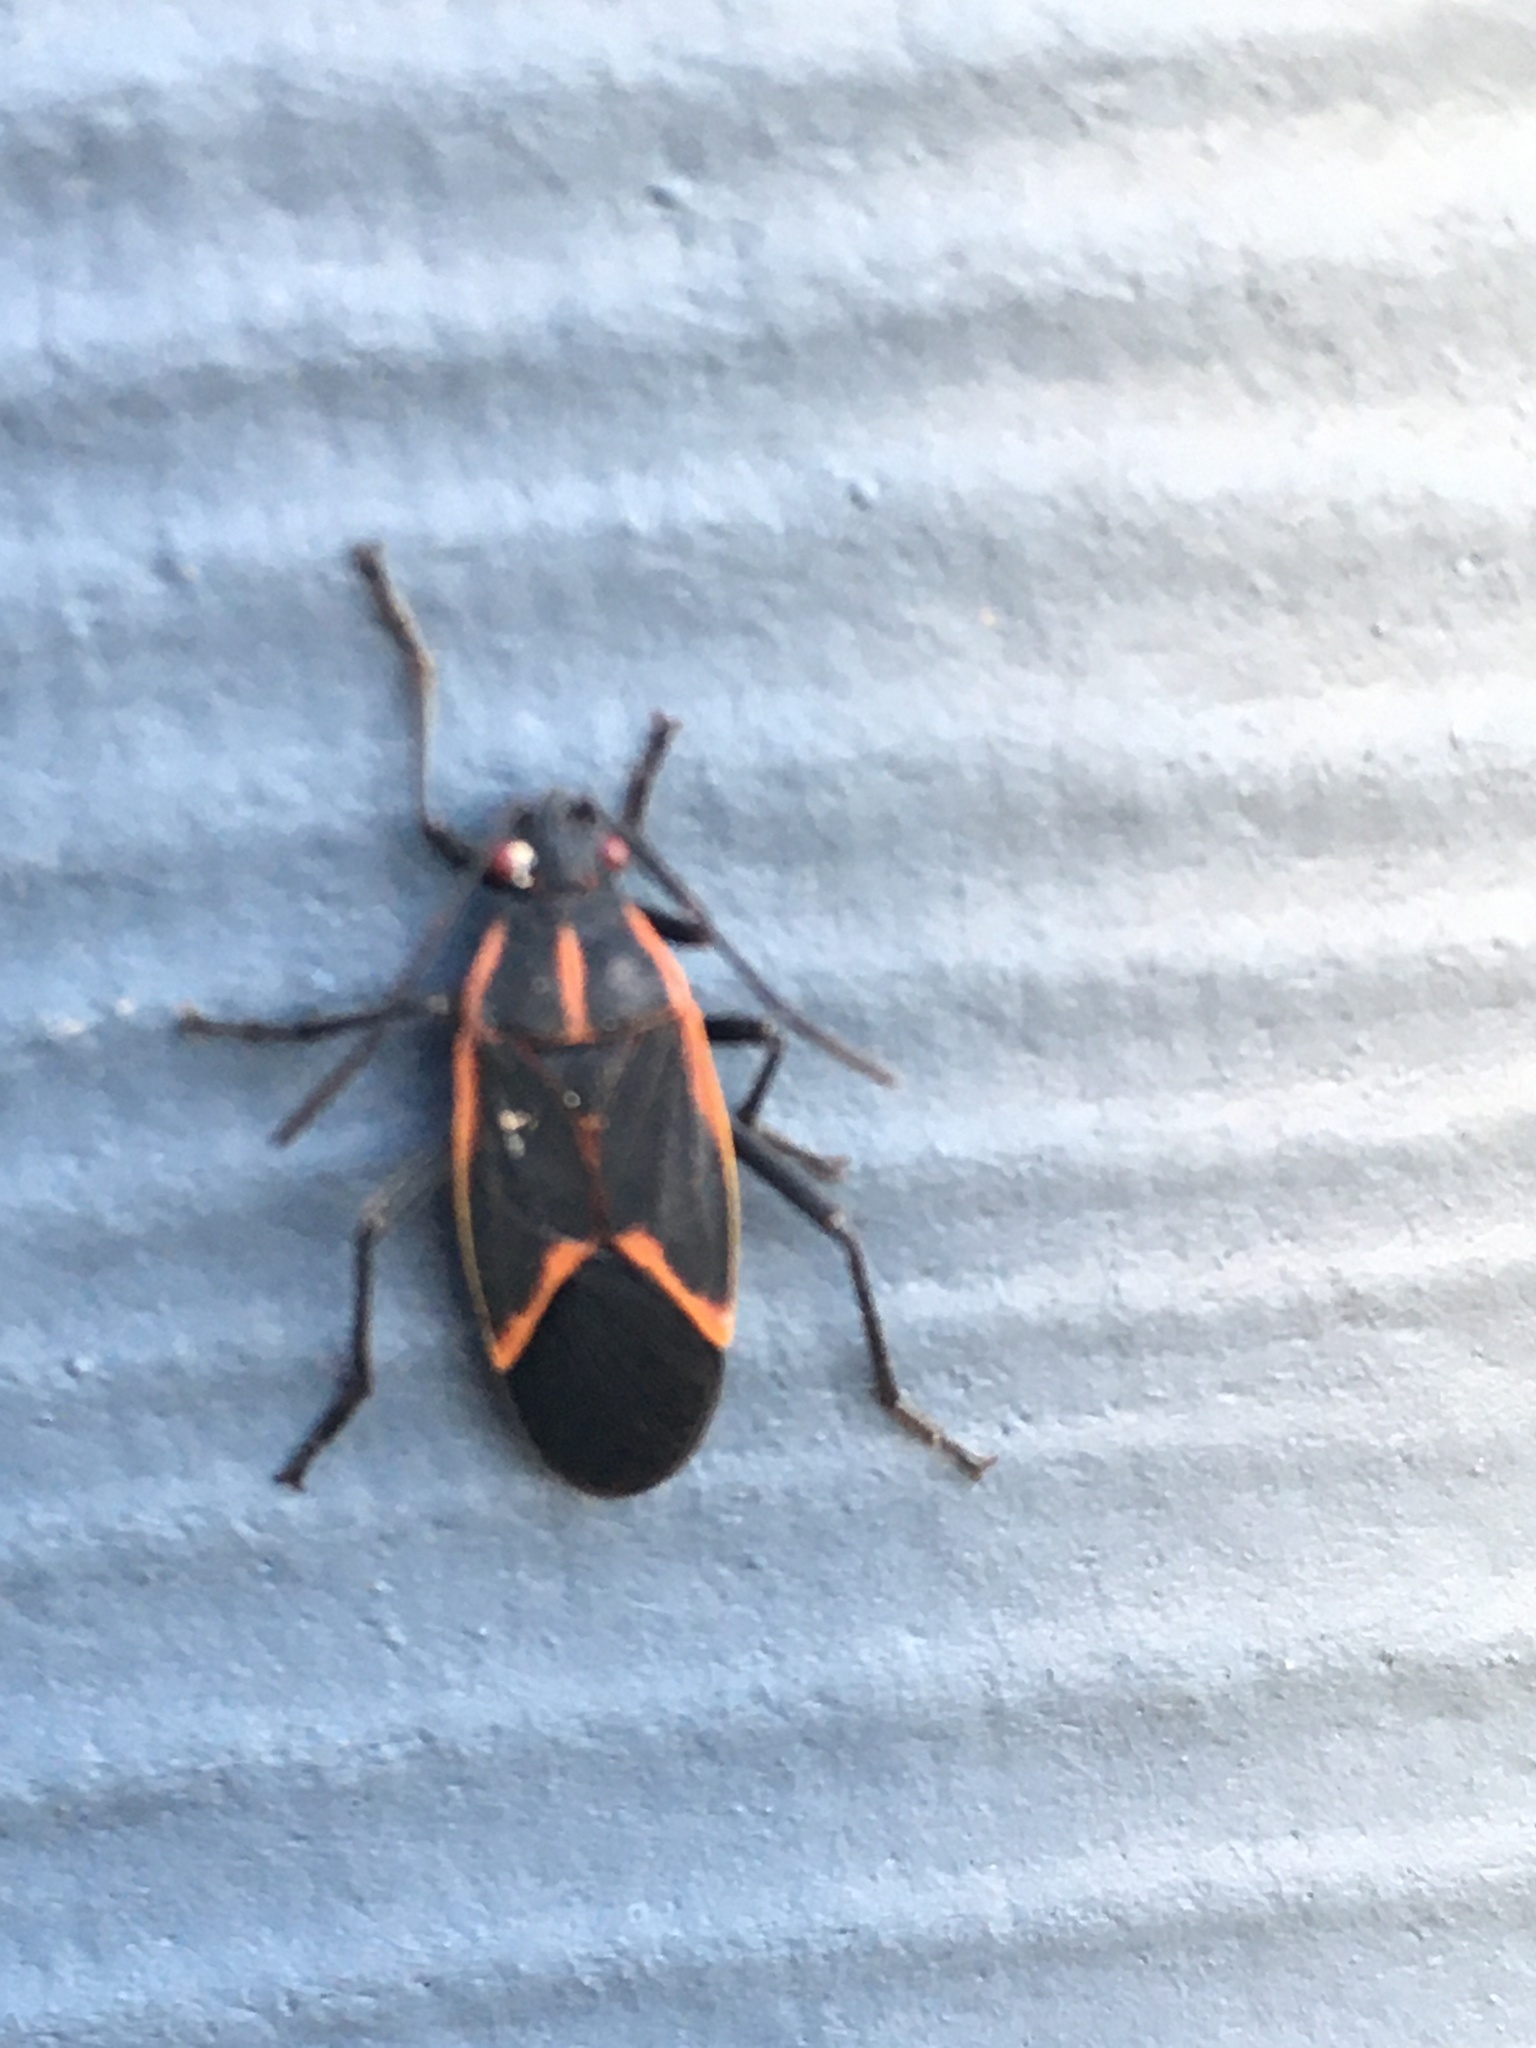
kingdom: Animalia
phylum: Arthropoda
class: Insecta
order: Hemiptera
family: Rhopalidae
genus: Boisea
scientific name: Boisea trivittata
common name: Boxelder bug
